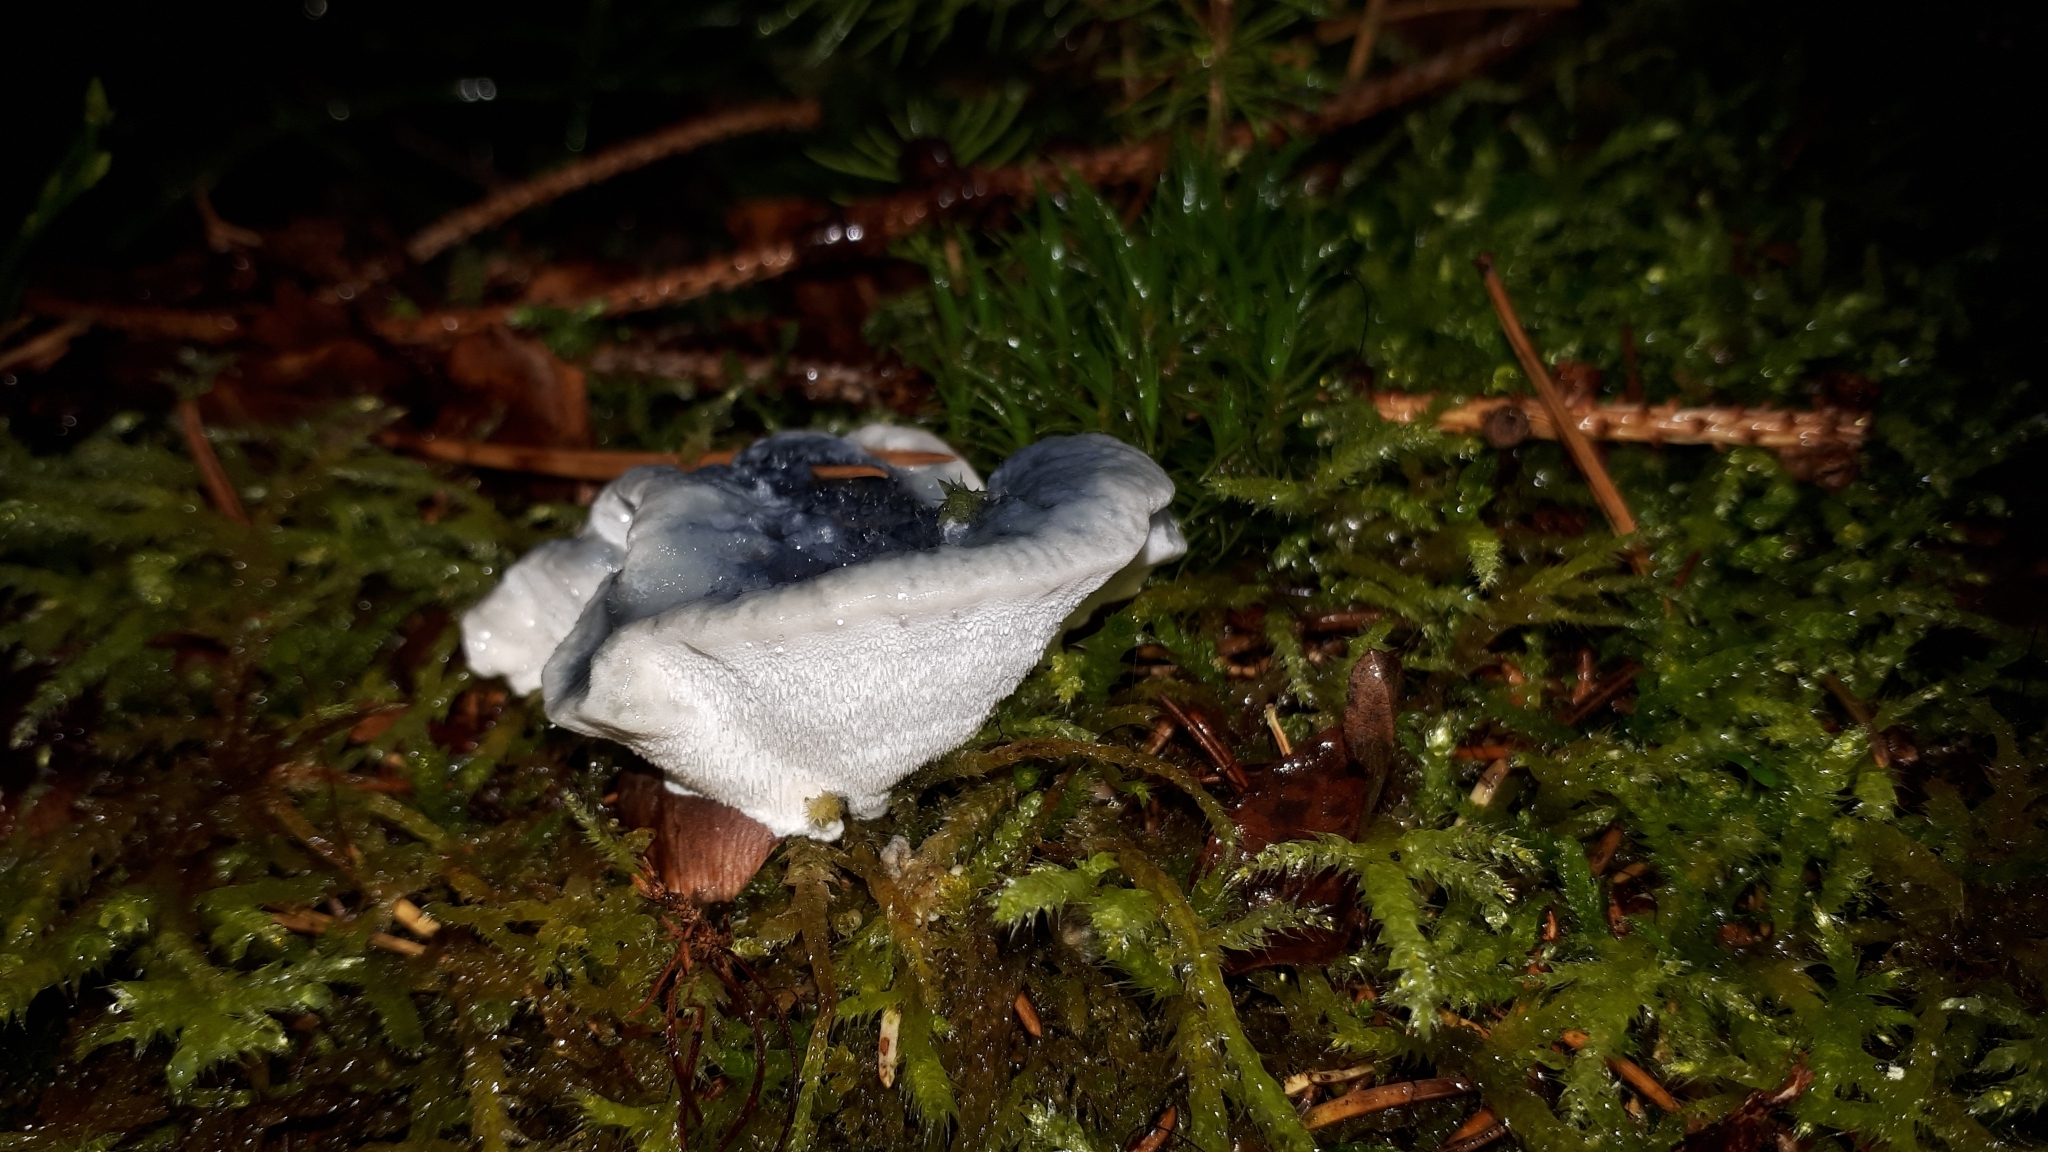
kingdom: Fungi
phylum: Basidiomycota
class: Agaricomycetes
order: Polyporales
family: Polyporaceae
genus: Cyanosporus
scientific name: Cyanosporus caesius
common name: Blue cheese polypore
